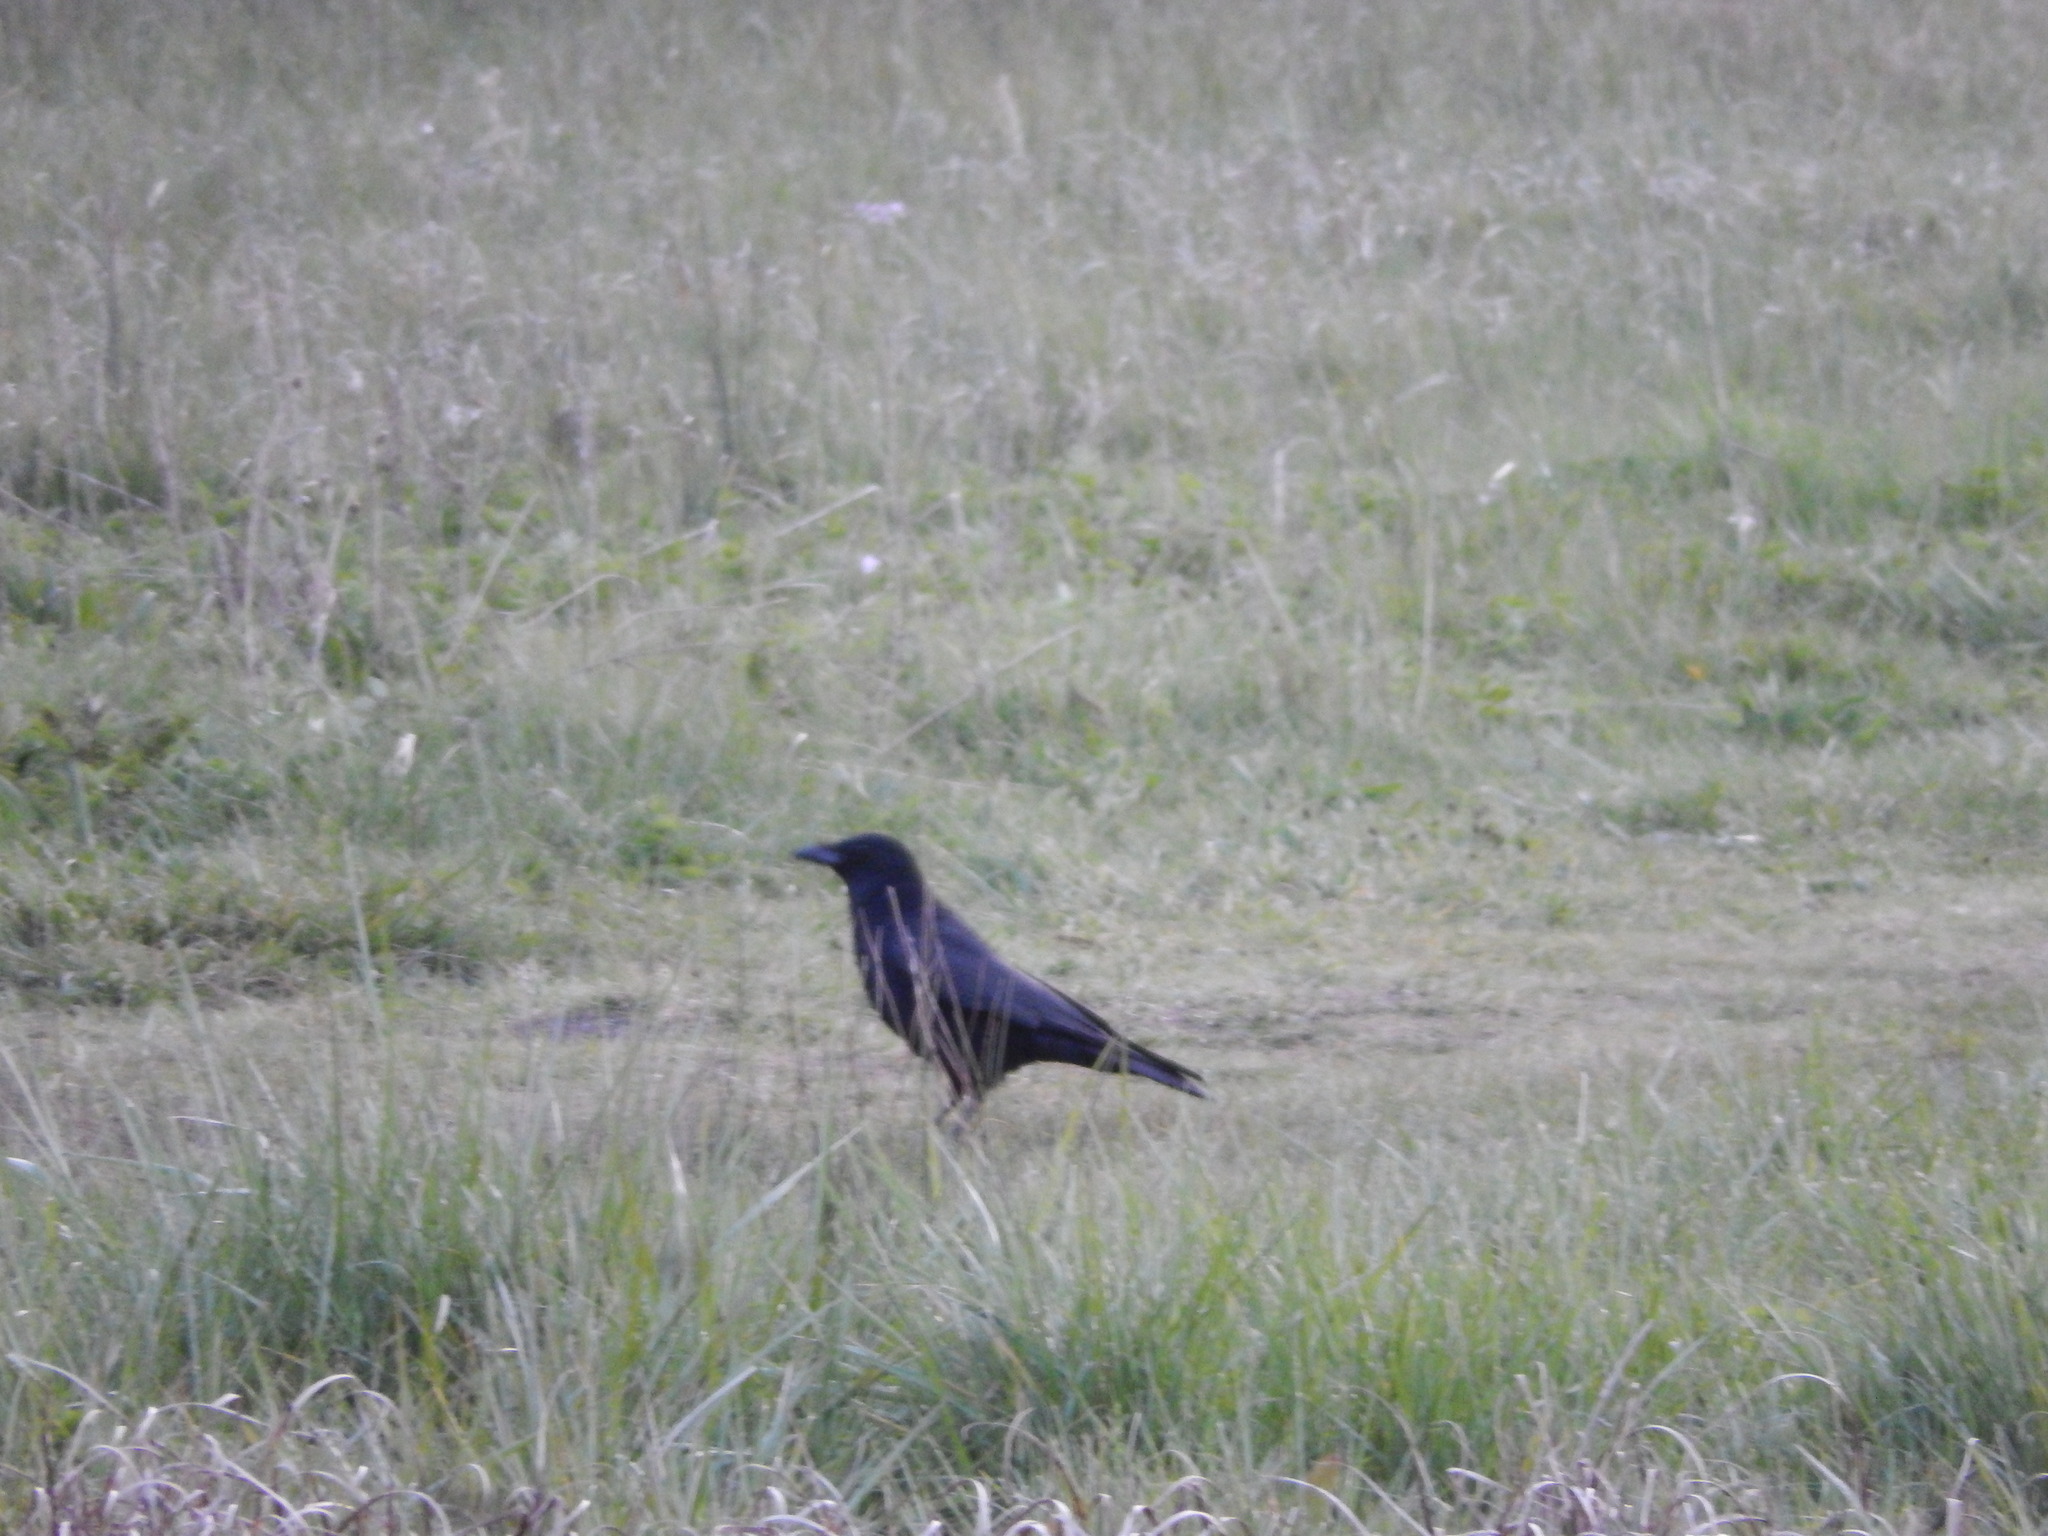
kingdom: Animalia
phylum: Chordata
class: Aves
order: Passeriformes
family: Corvidae
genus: Corvus
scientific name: Corvus corone
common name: Carrion crow
